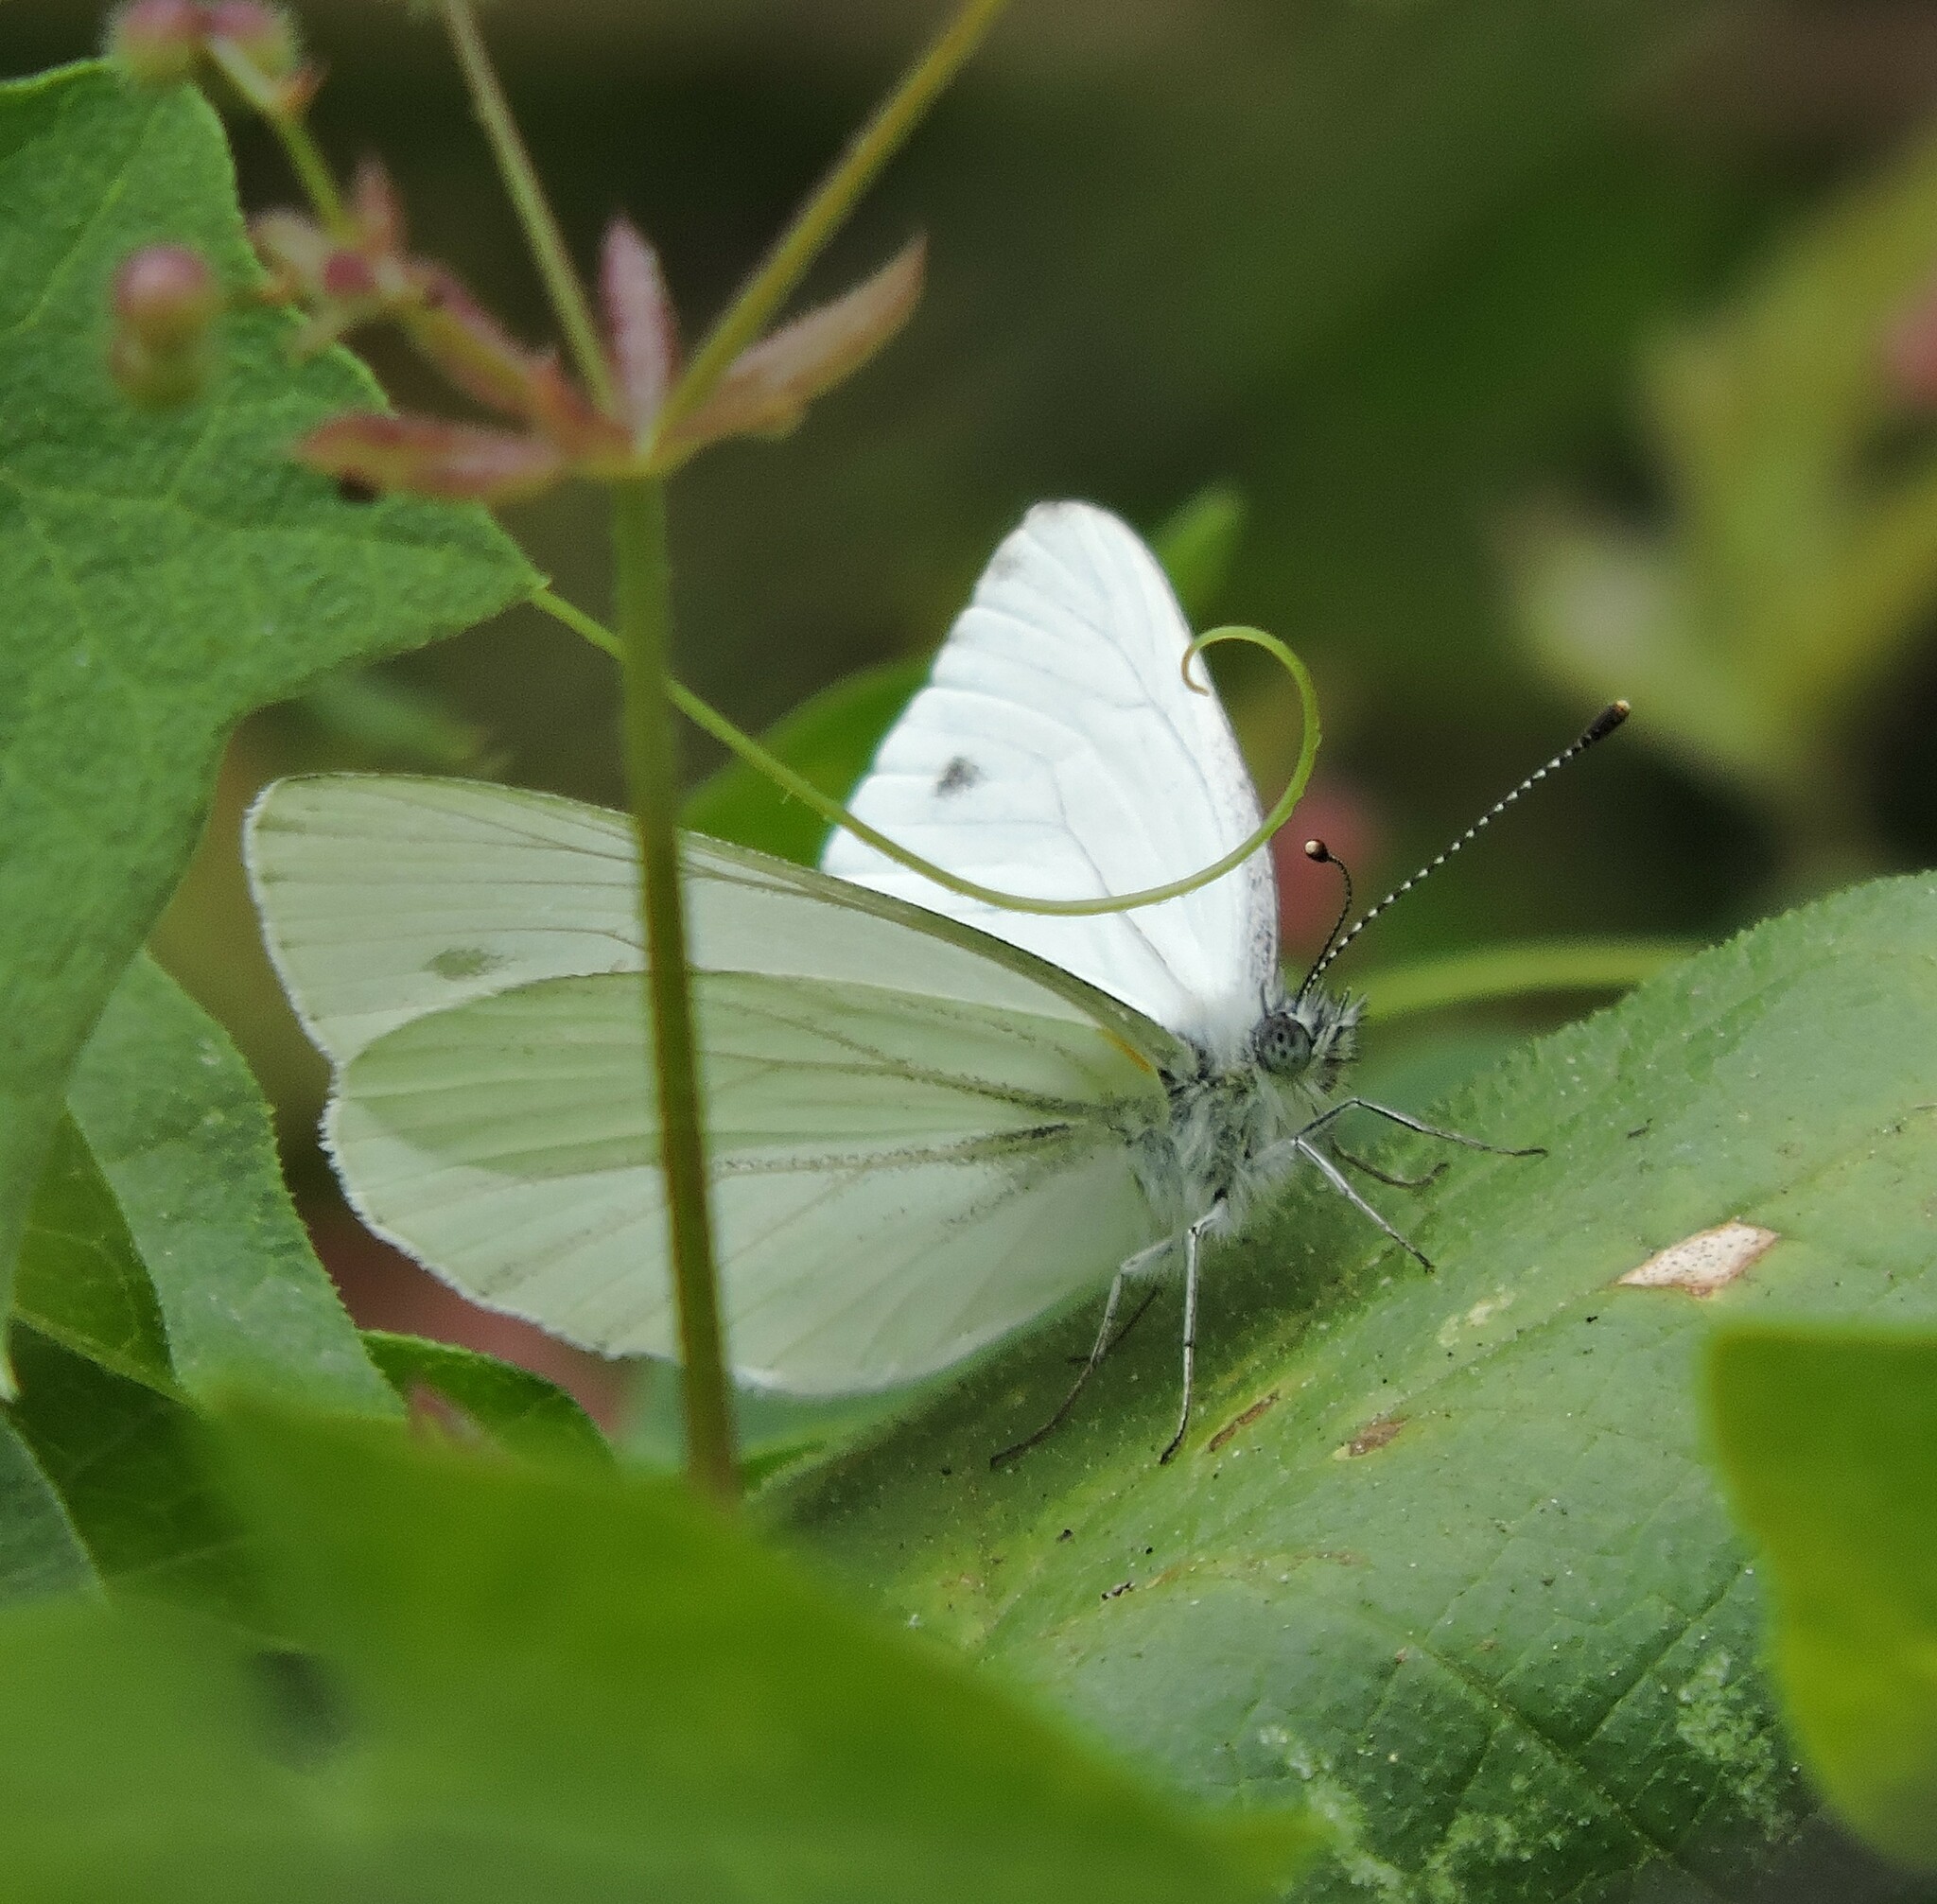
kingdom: Animalia
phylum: Arthropoda
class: Insecta
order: Lepidoptera
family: Pieridae
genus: Pieris
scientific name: Pieris marginalis
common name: Margined white
